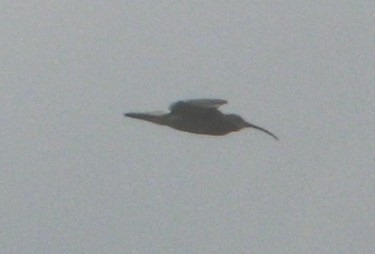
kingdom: Animalia
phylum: Chordata
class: Aves
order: Charadriiformes
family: Scolopacidae
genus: Numenius
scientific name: Numenius arquata
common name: Eurasian curlew
